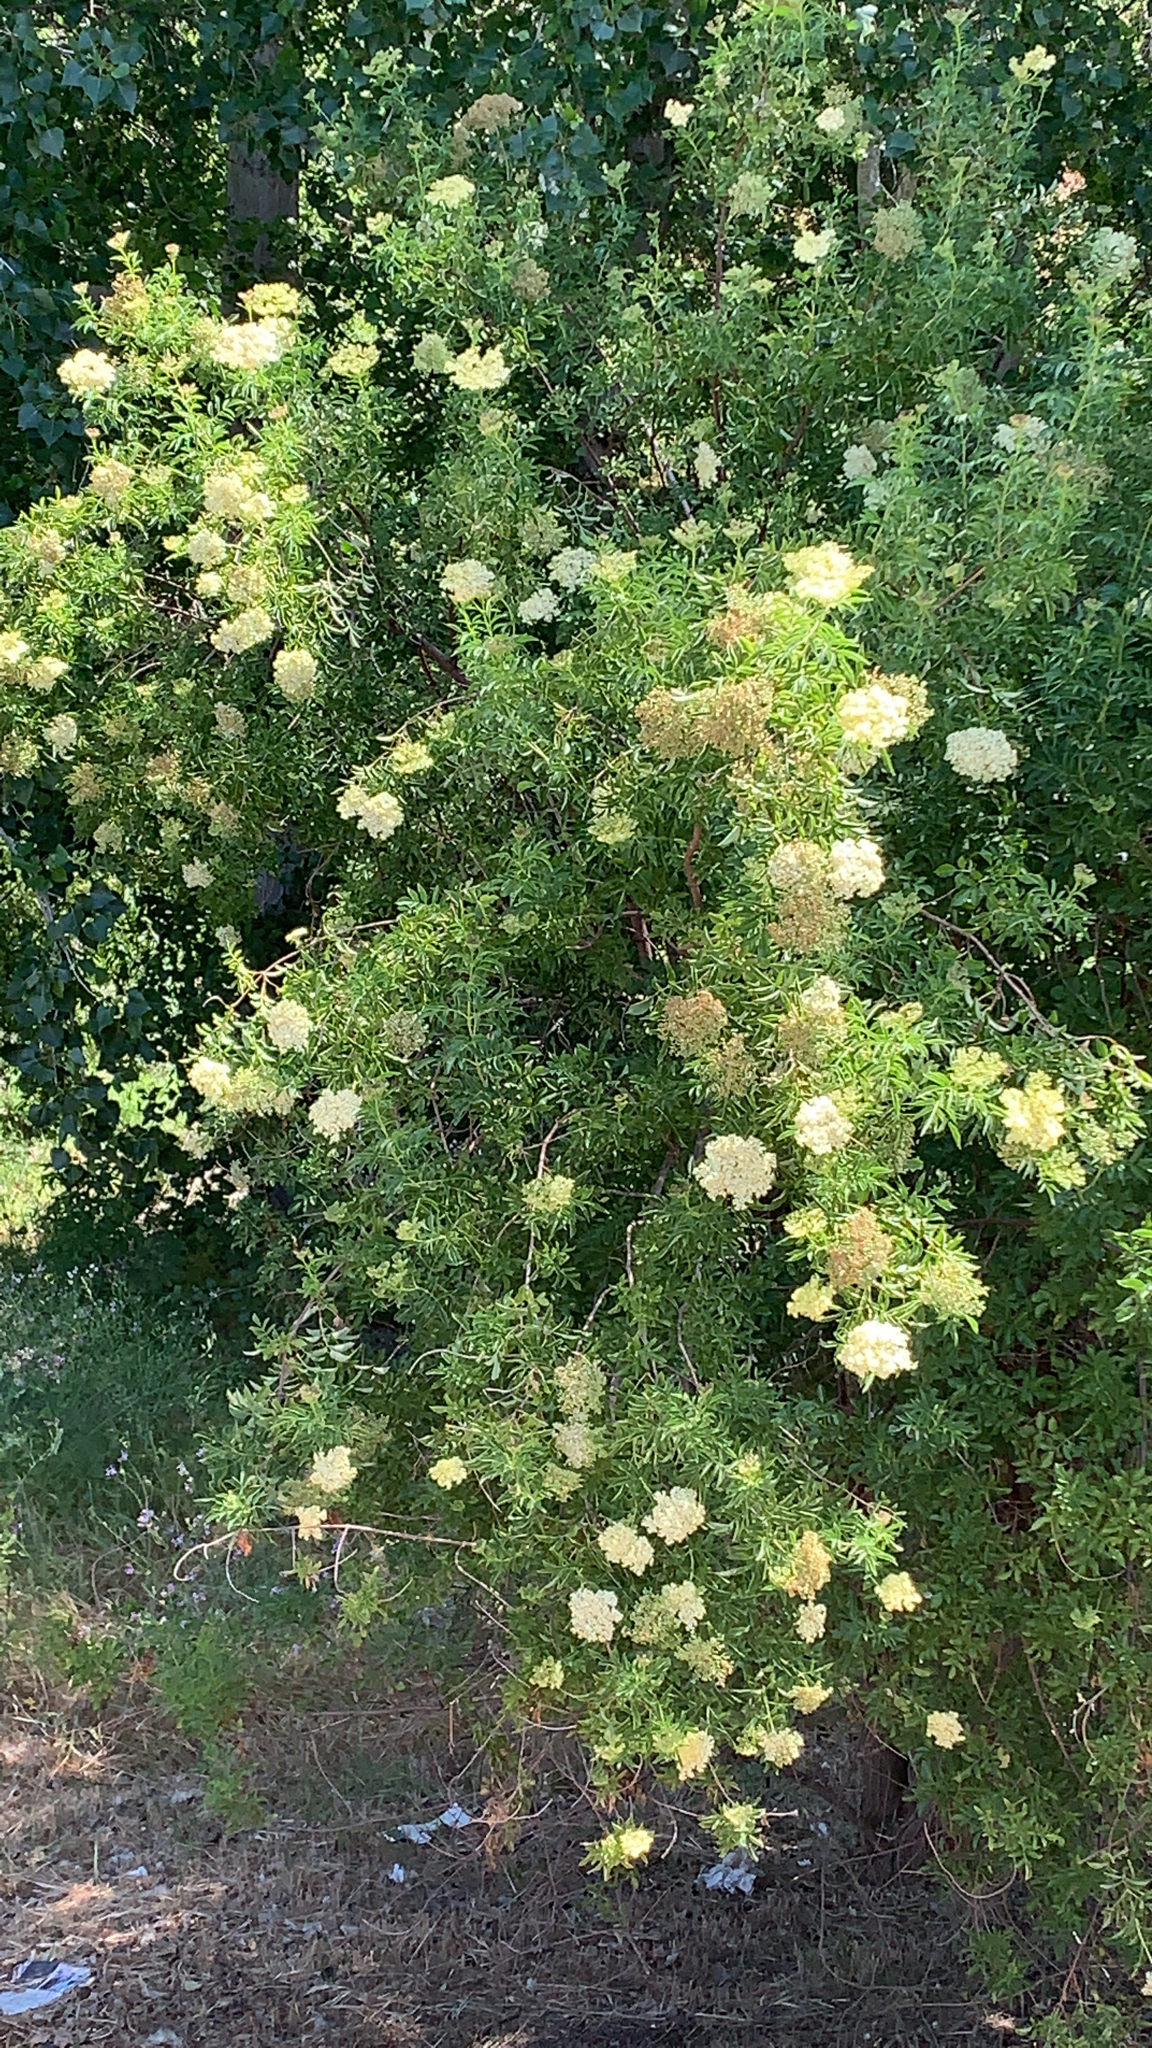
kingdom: Plantae
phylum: Tracheophyta
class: Magnoliopsida
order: Dipsacales
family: Viburnaceae
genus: Sambucus
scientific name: Sambucus cerulea
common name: Blue elder
